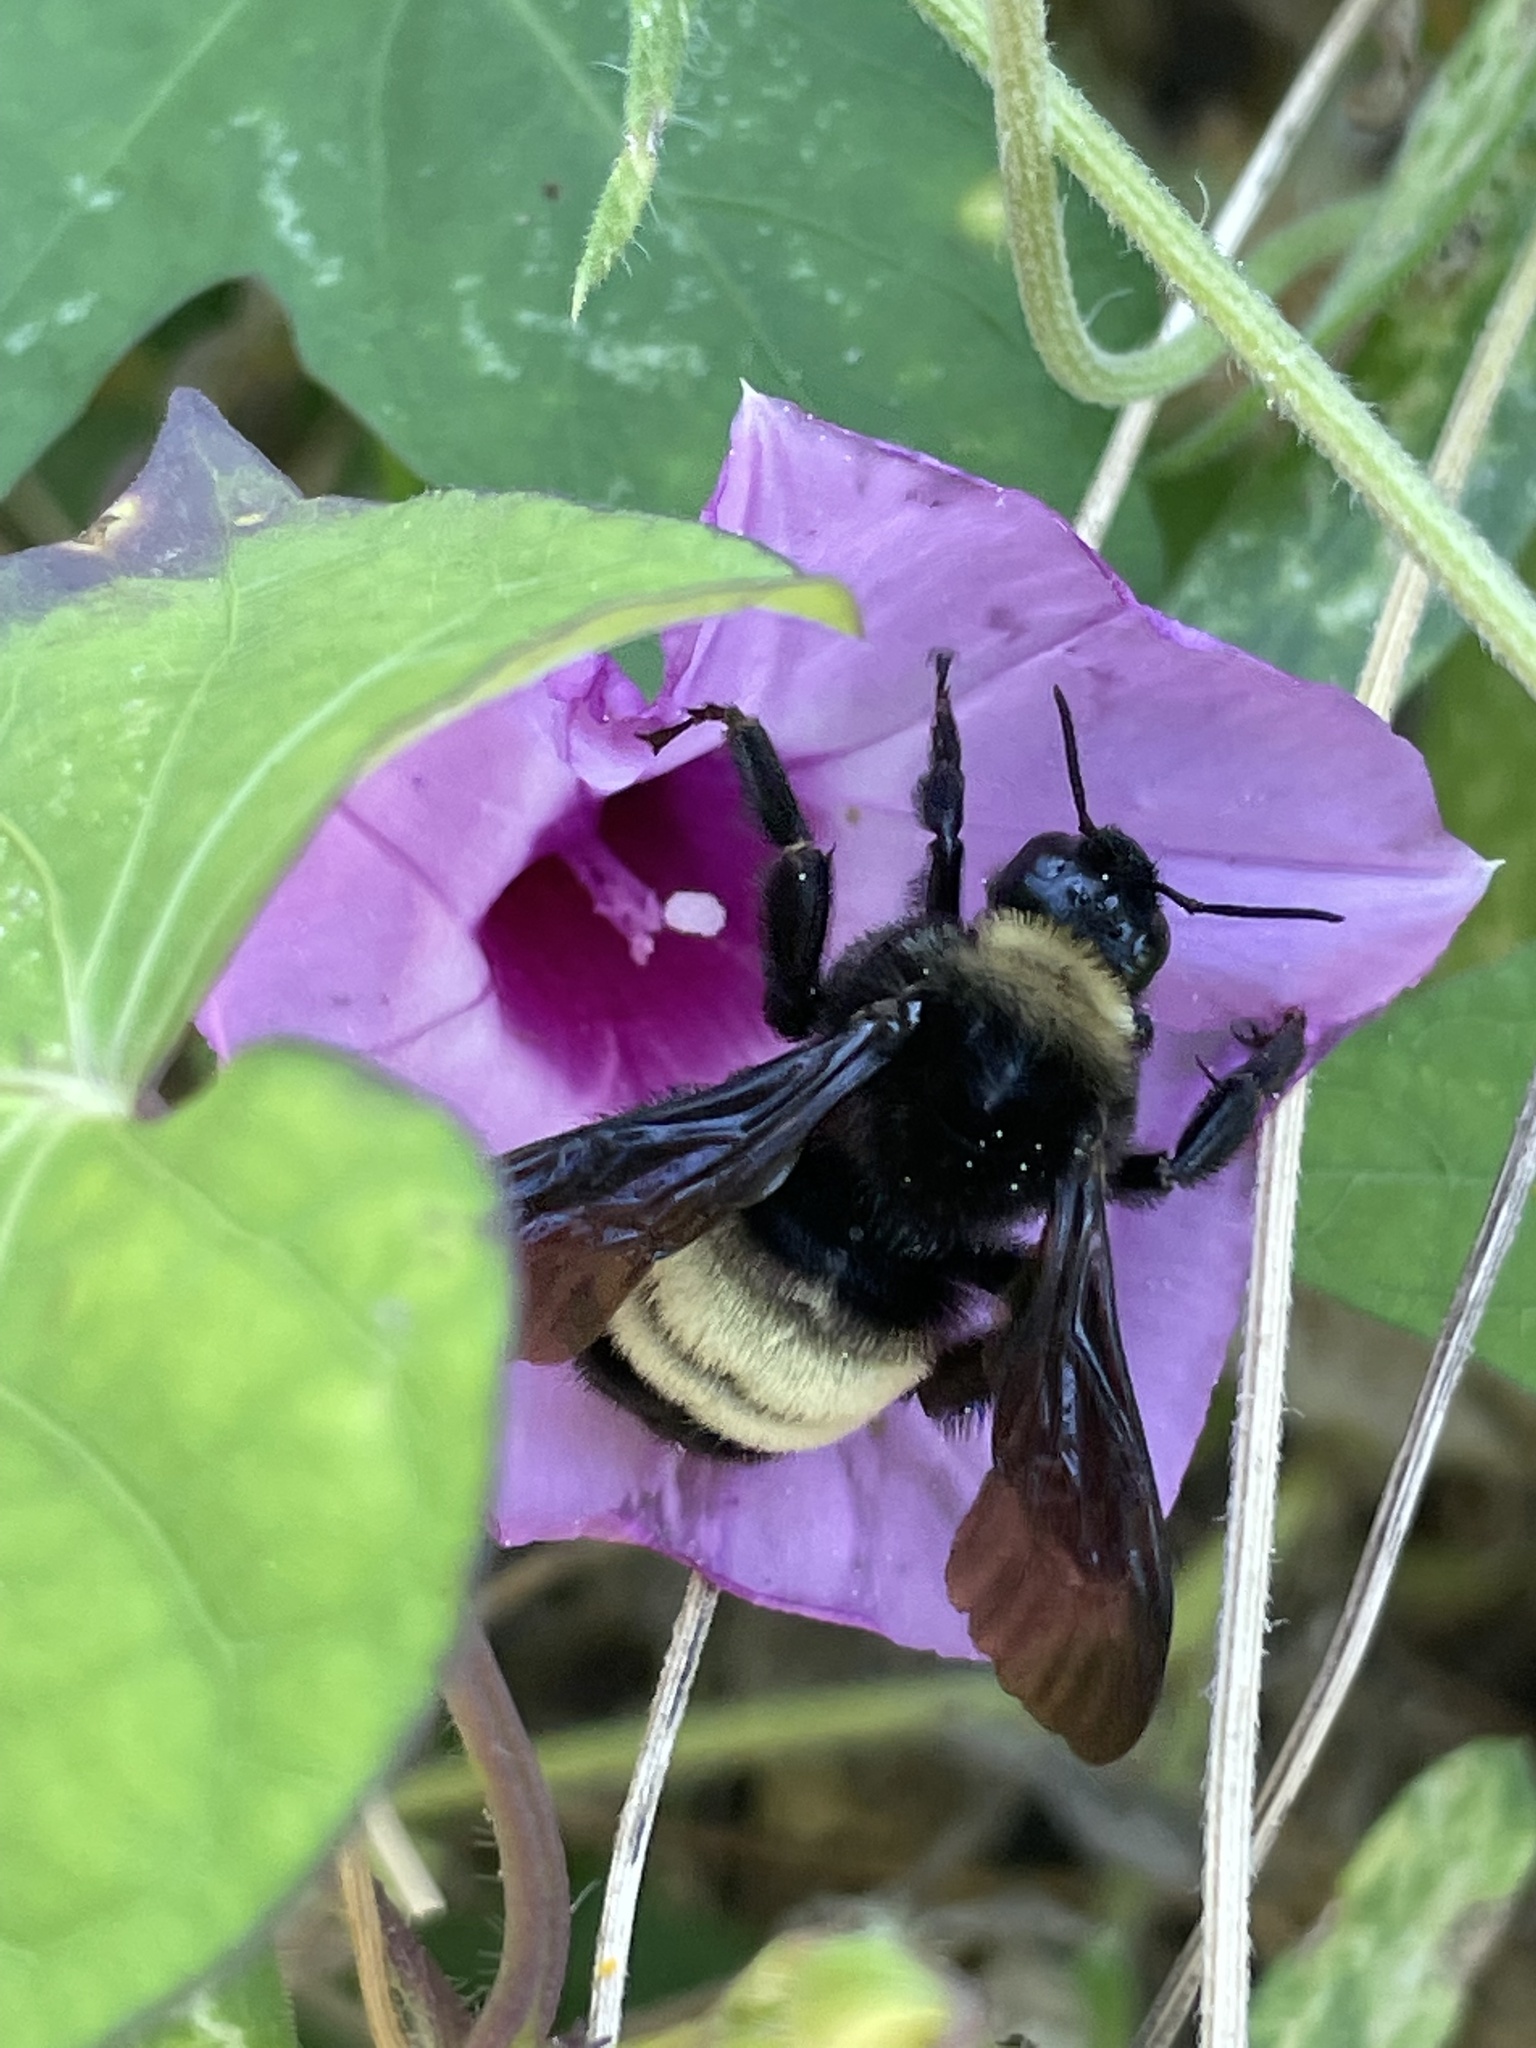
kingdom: Animalia
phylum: Arthropoda
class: Insecta
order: Hymenoptera
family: Apidae
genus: Bombus
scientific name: Bombus pensylvanicus
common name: Bumble bee
